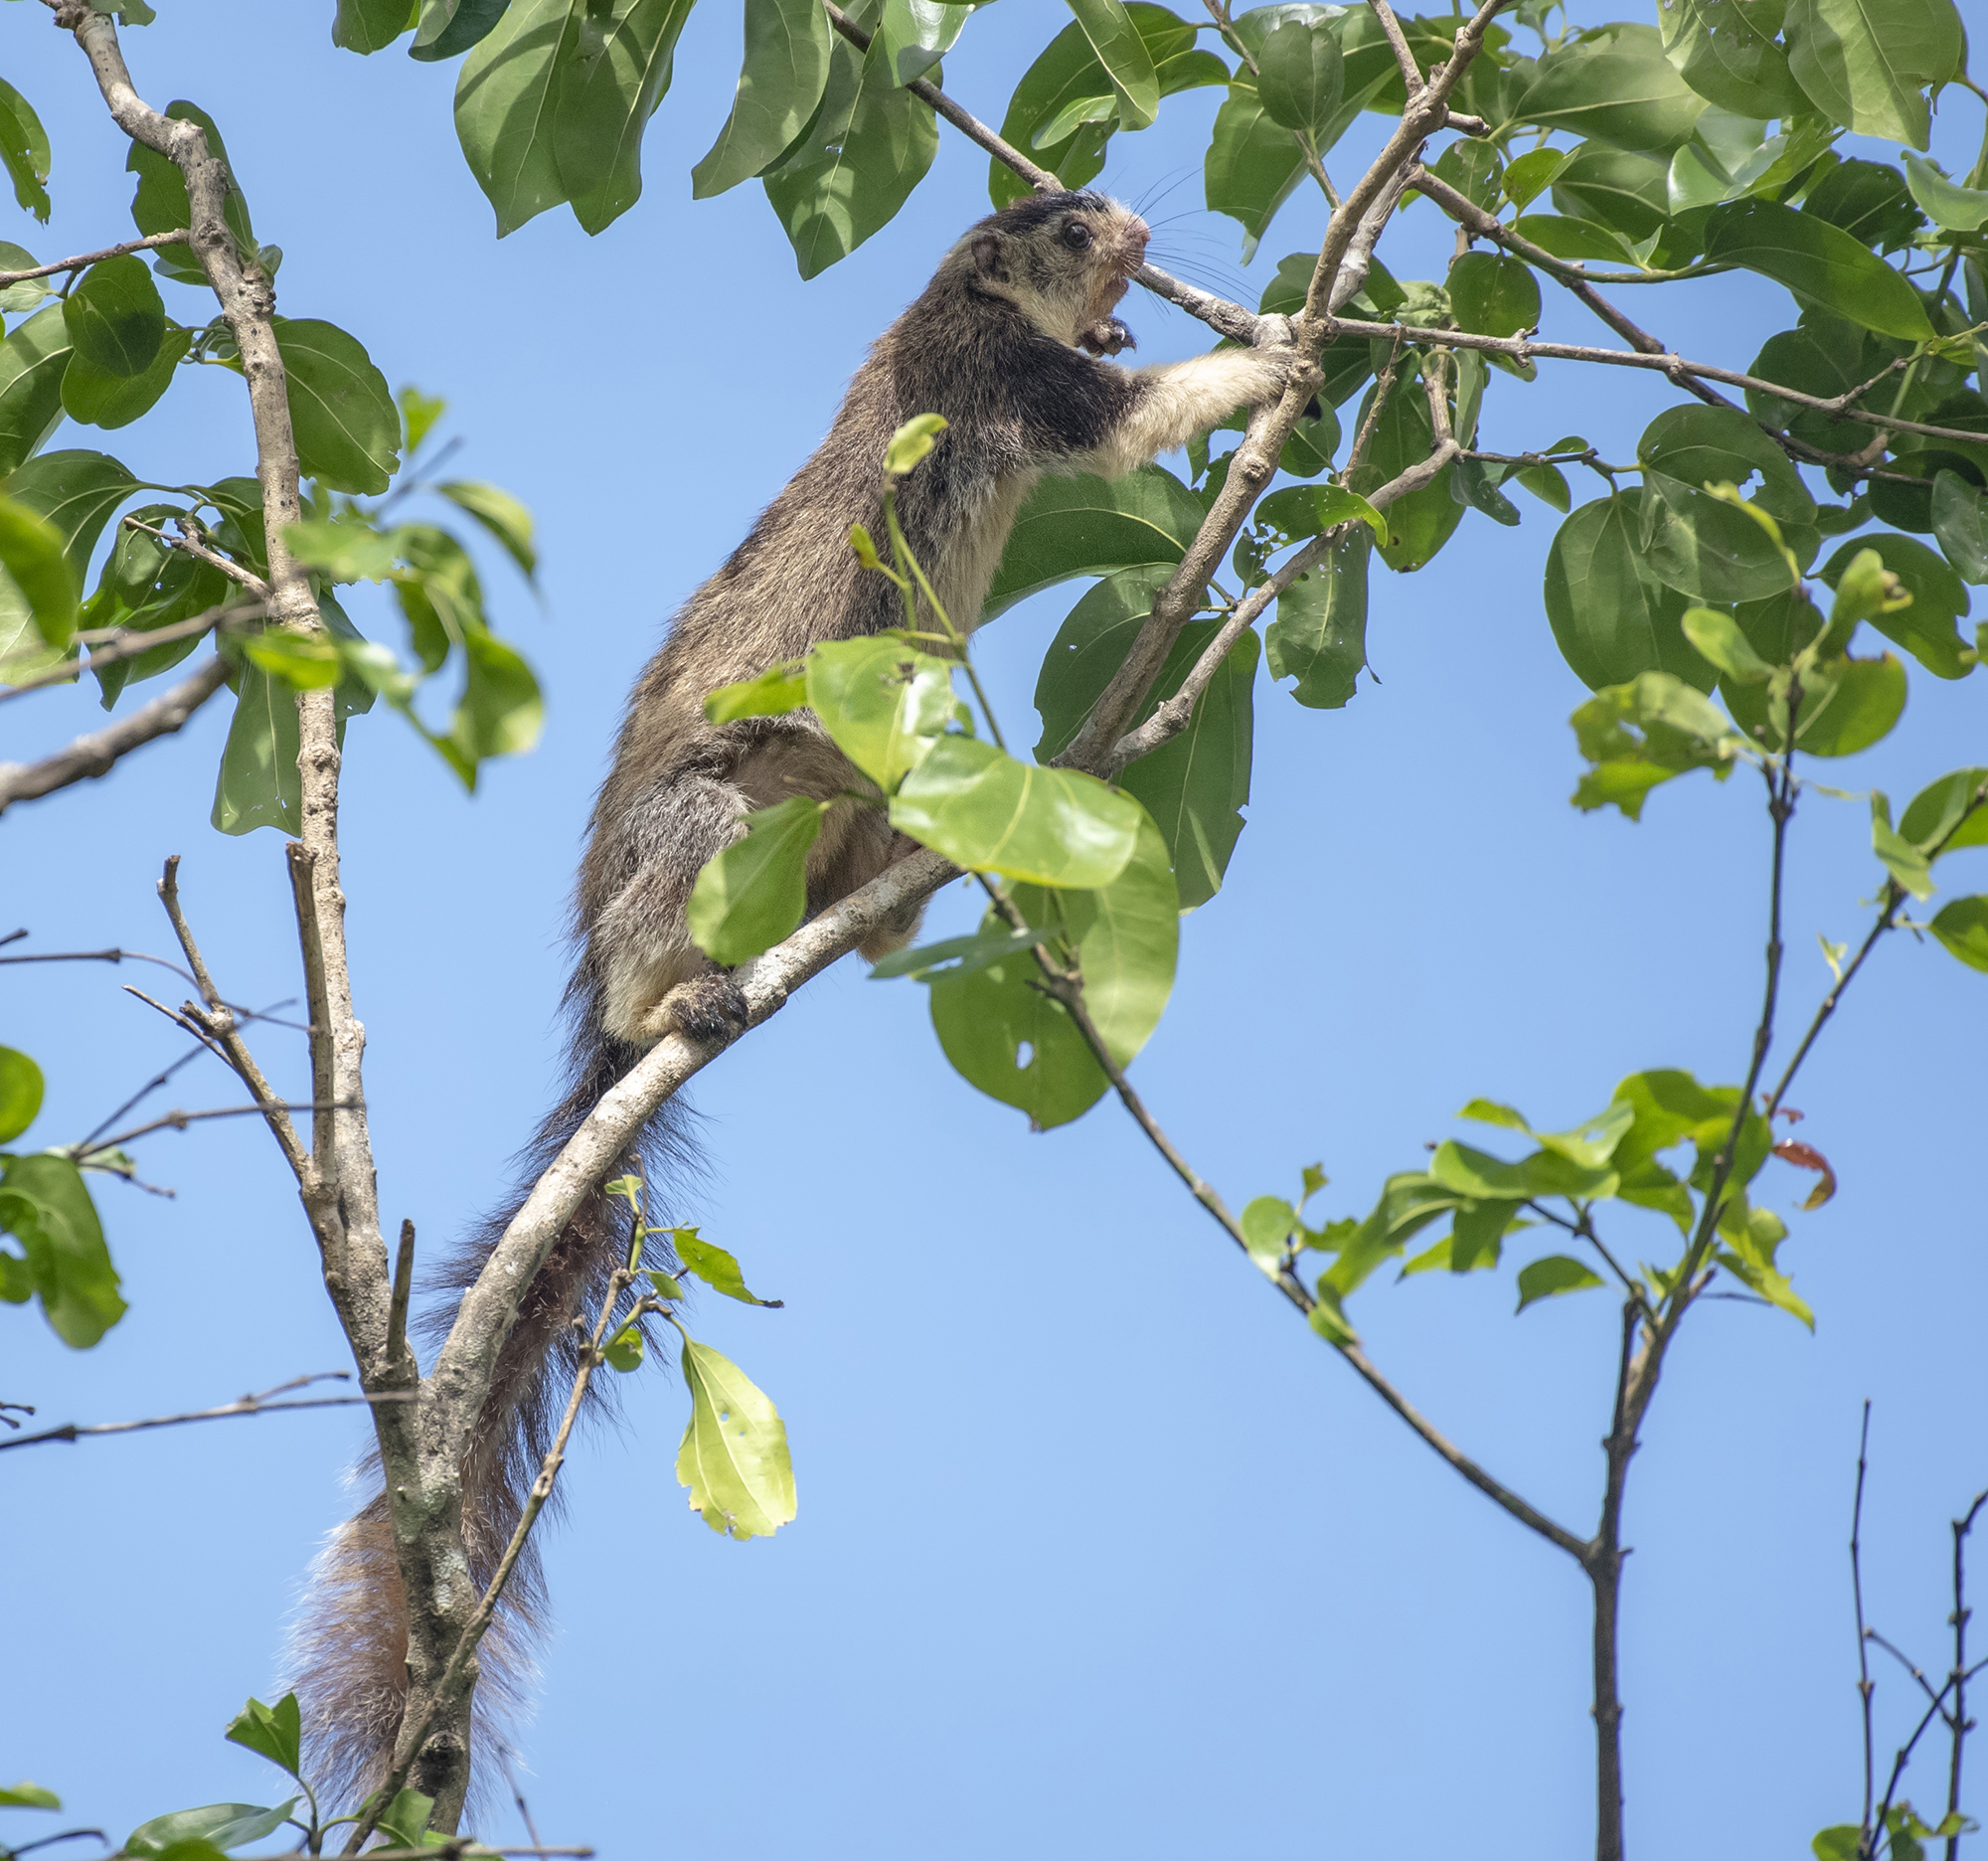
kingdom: Animalia
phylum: Chordata
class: Mammalia
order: Rodentia
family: Sciuridae
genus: Ratufa
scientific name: Ratufa macroura
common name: Sri lankan giant squirrel
